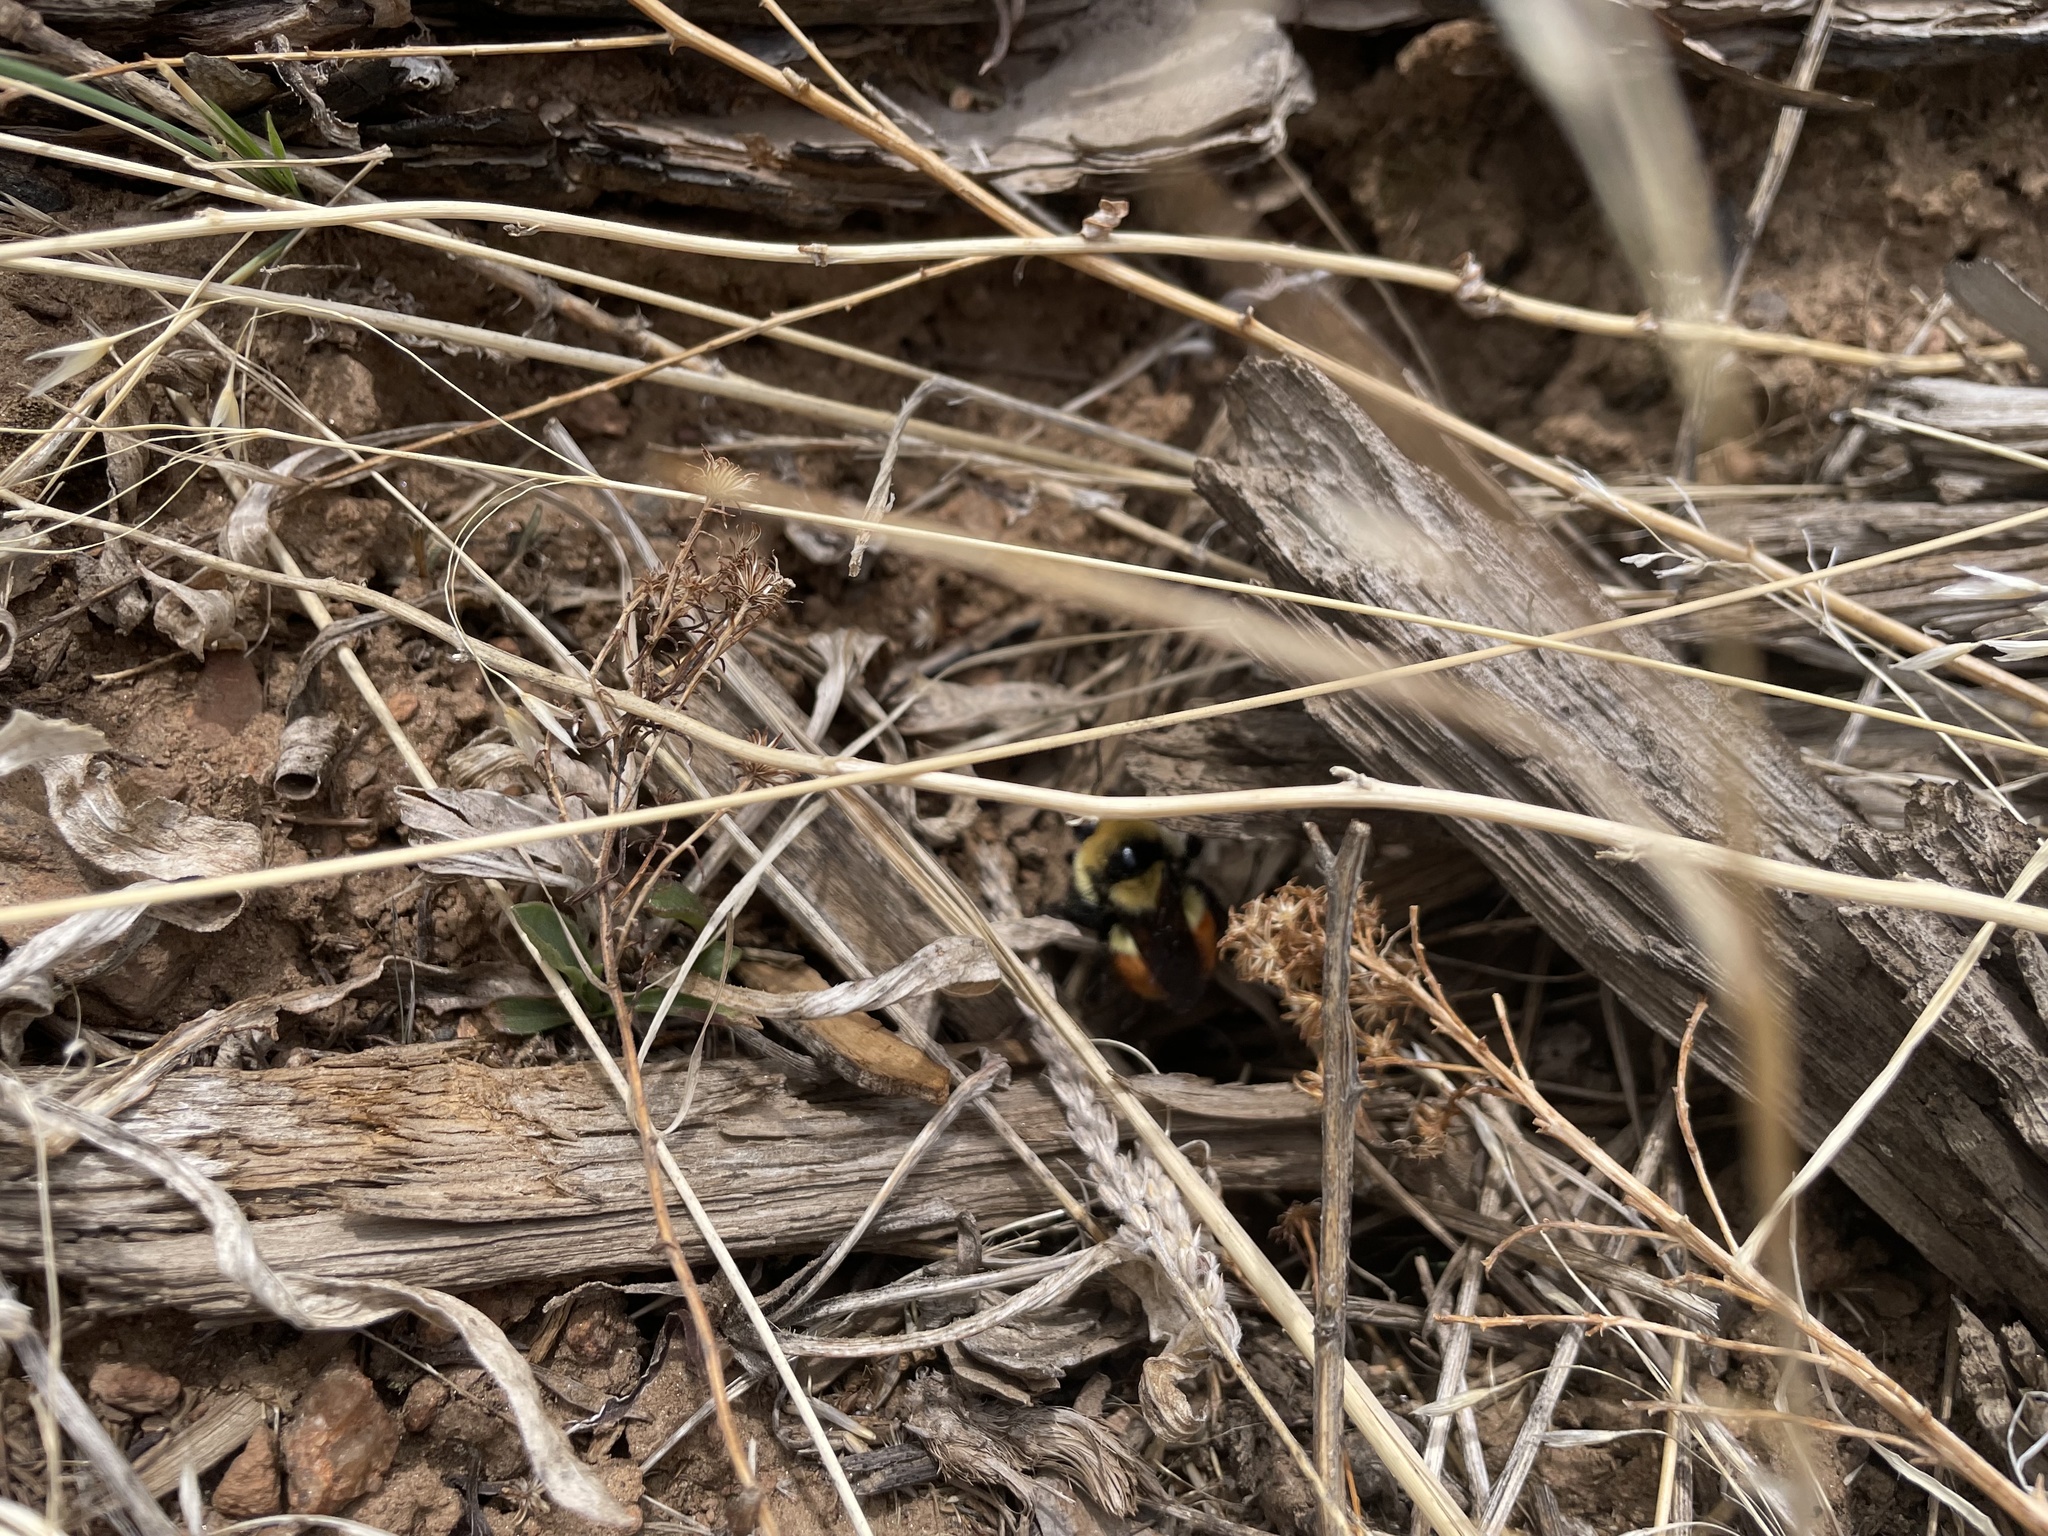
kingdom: Animalia
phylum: Arthropoda
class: Insecta
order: Hymenoptera
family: Apidae
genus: Bombus
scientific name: Bombus huntii
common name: Hunt bumble bee
